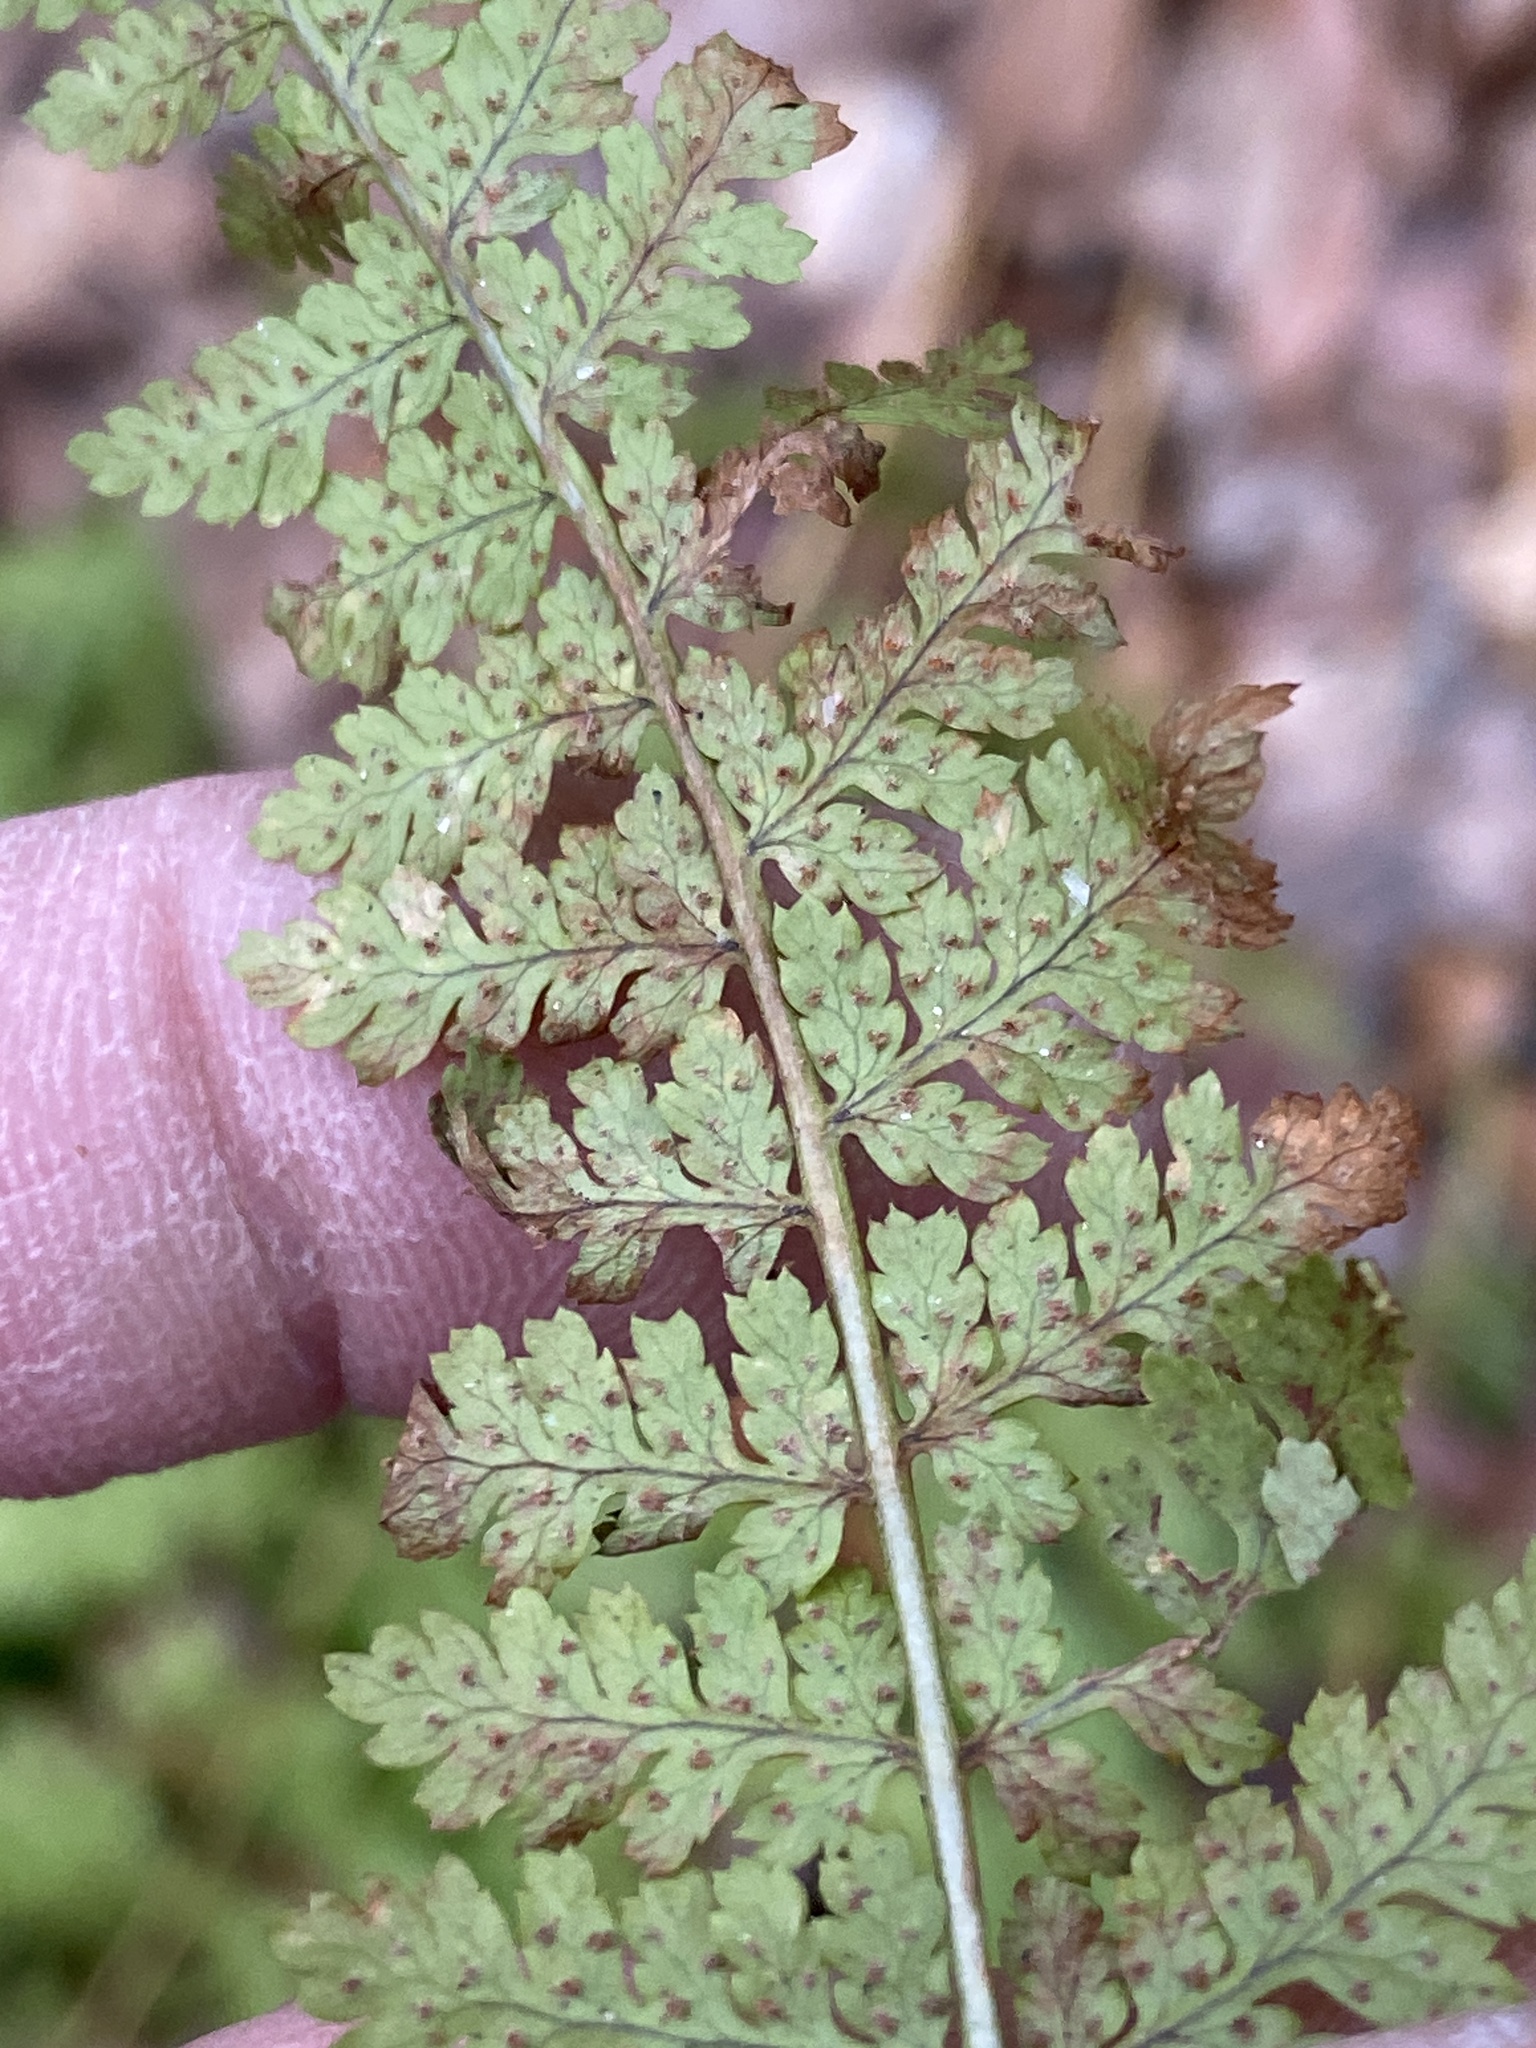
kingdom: Plantae
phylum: Tracheophyta
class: Polypodiopsida
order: Polypodiales
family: Dryopteridaceae
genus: Dryopteris
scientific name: Dryopteris intermedia
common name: Evergreen wood fern
